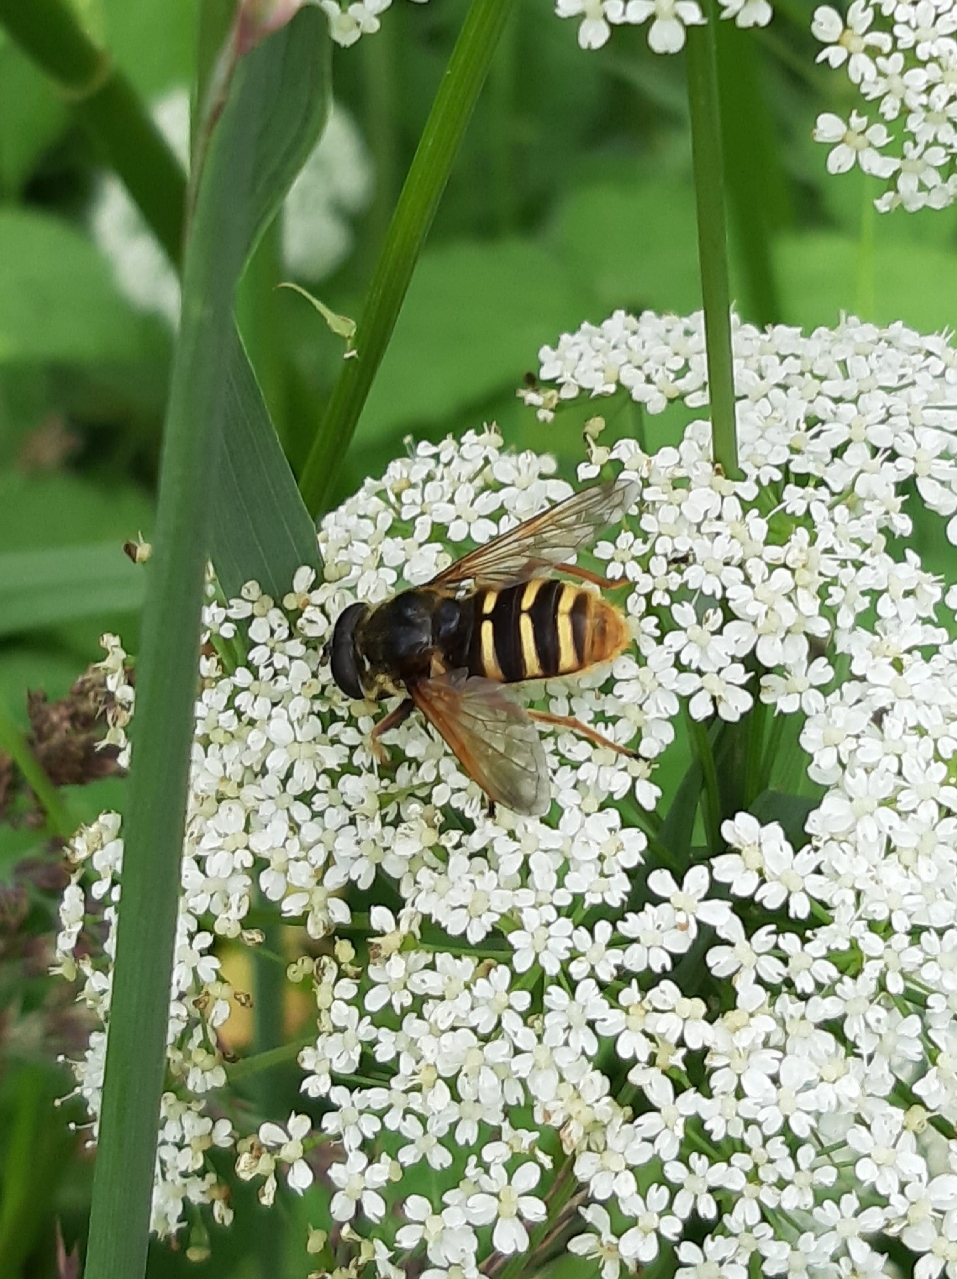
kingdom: Animalia
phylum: Arthropoda
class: Insecta
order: Diptera
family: Syrphidae
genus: Sericomyia
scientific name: Sericomyia silentis
